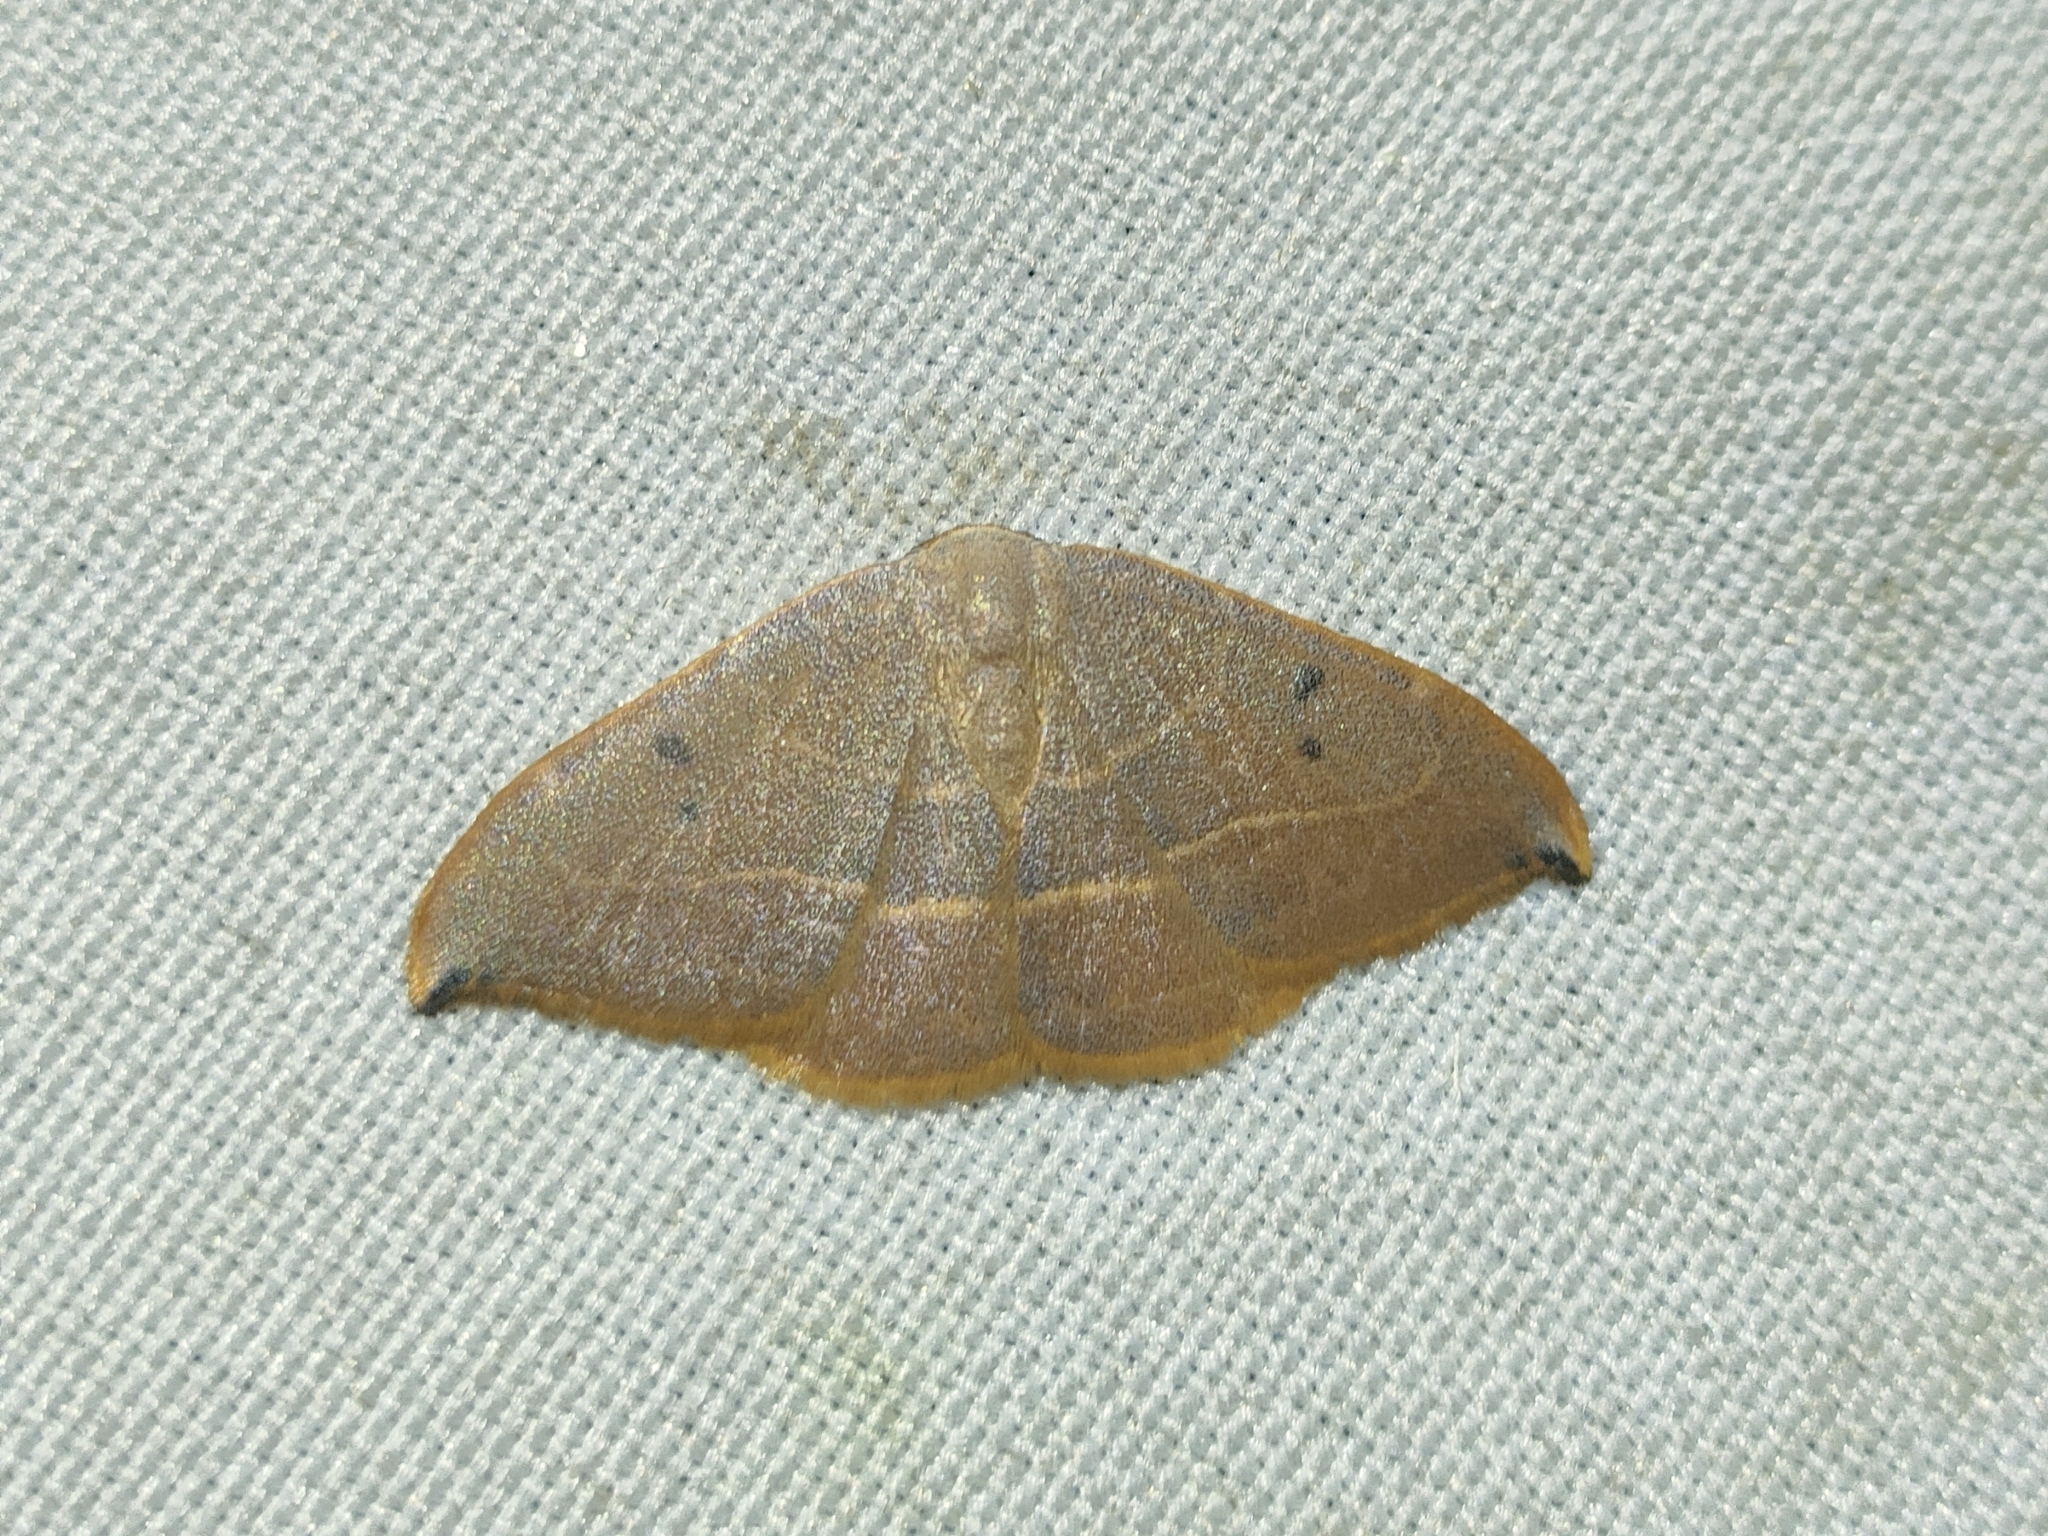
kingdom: Animalia
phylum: Arthropoda
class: Insecta
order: Lepidoptera
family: Drepanidae
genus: Watsonalla
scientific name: Watsonalla uncinula
